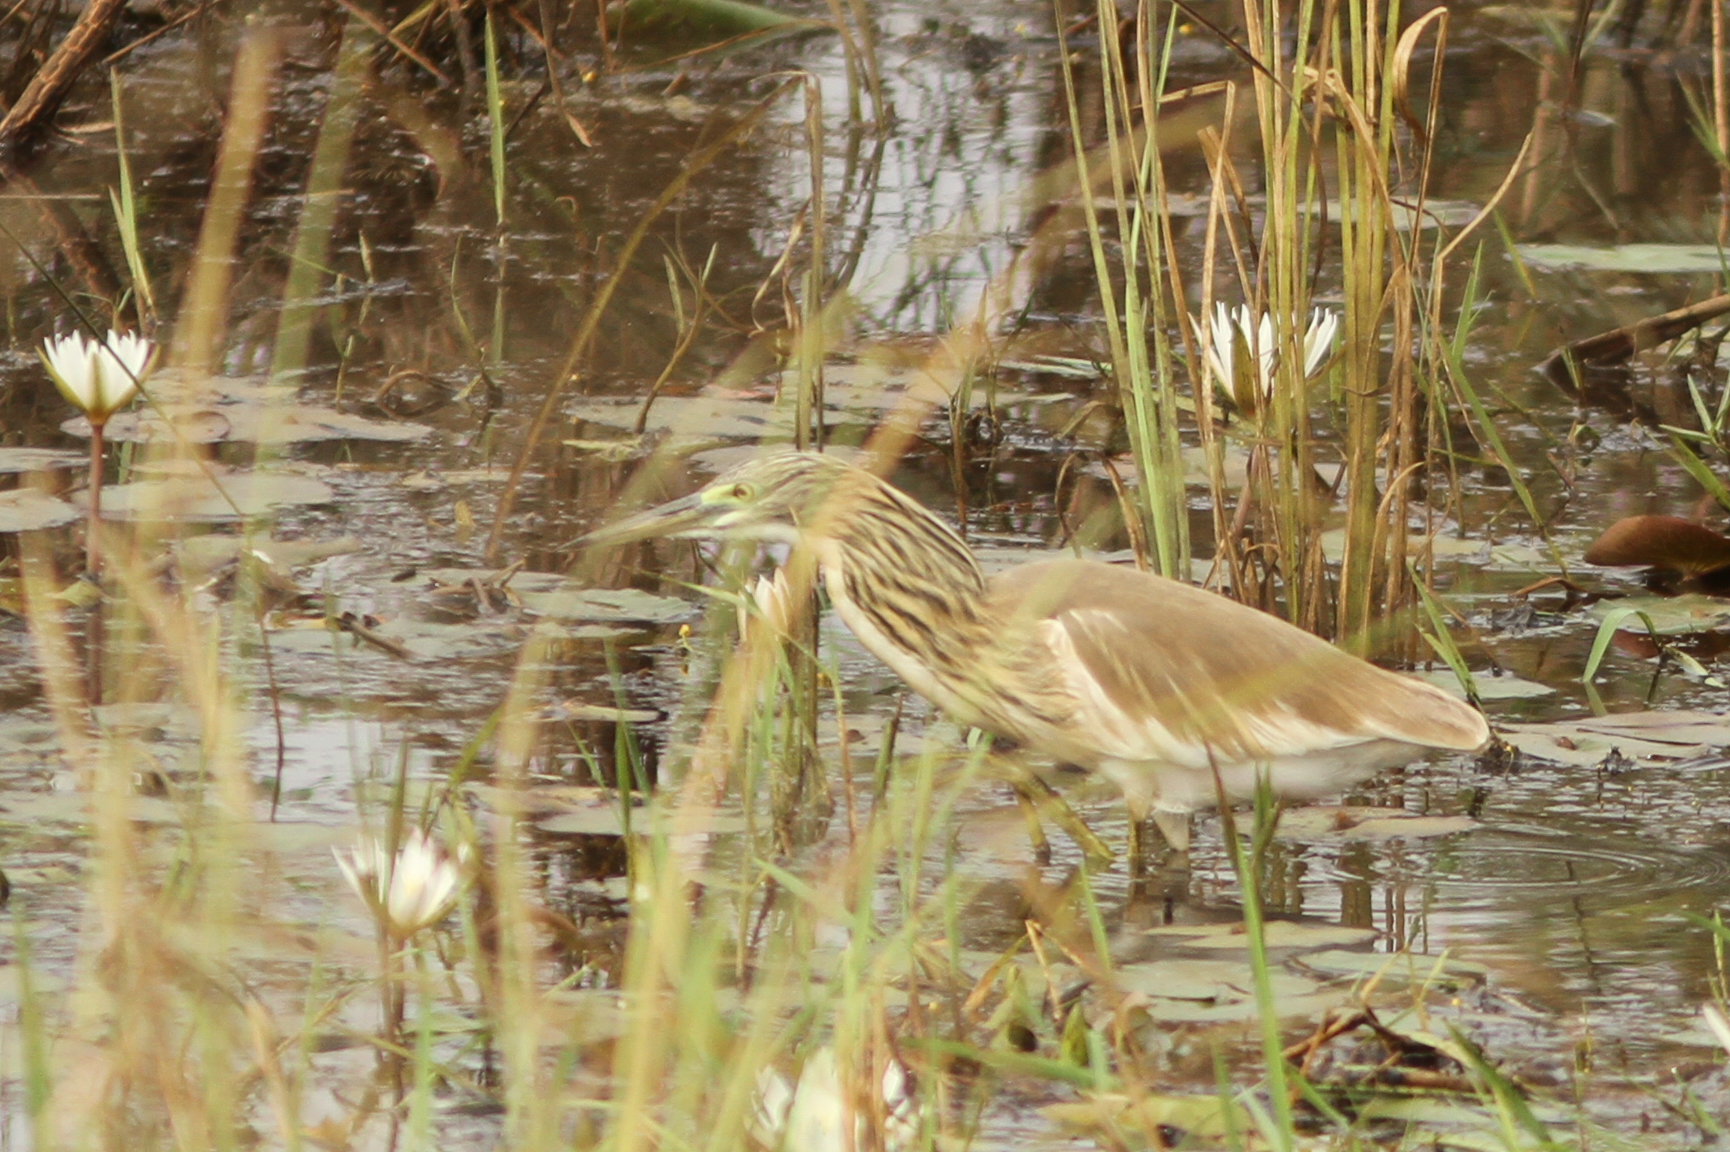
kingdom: Animalia
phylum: Chordata
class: Aves
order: Pelecaniformes
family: Ardeidae
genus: Ardeola
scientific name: Ardeola ralloides
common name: Squacco heron
